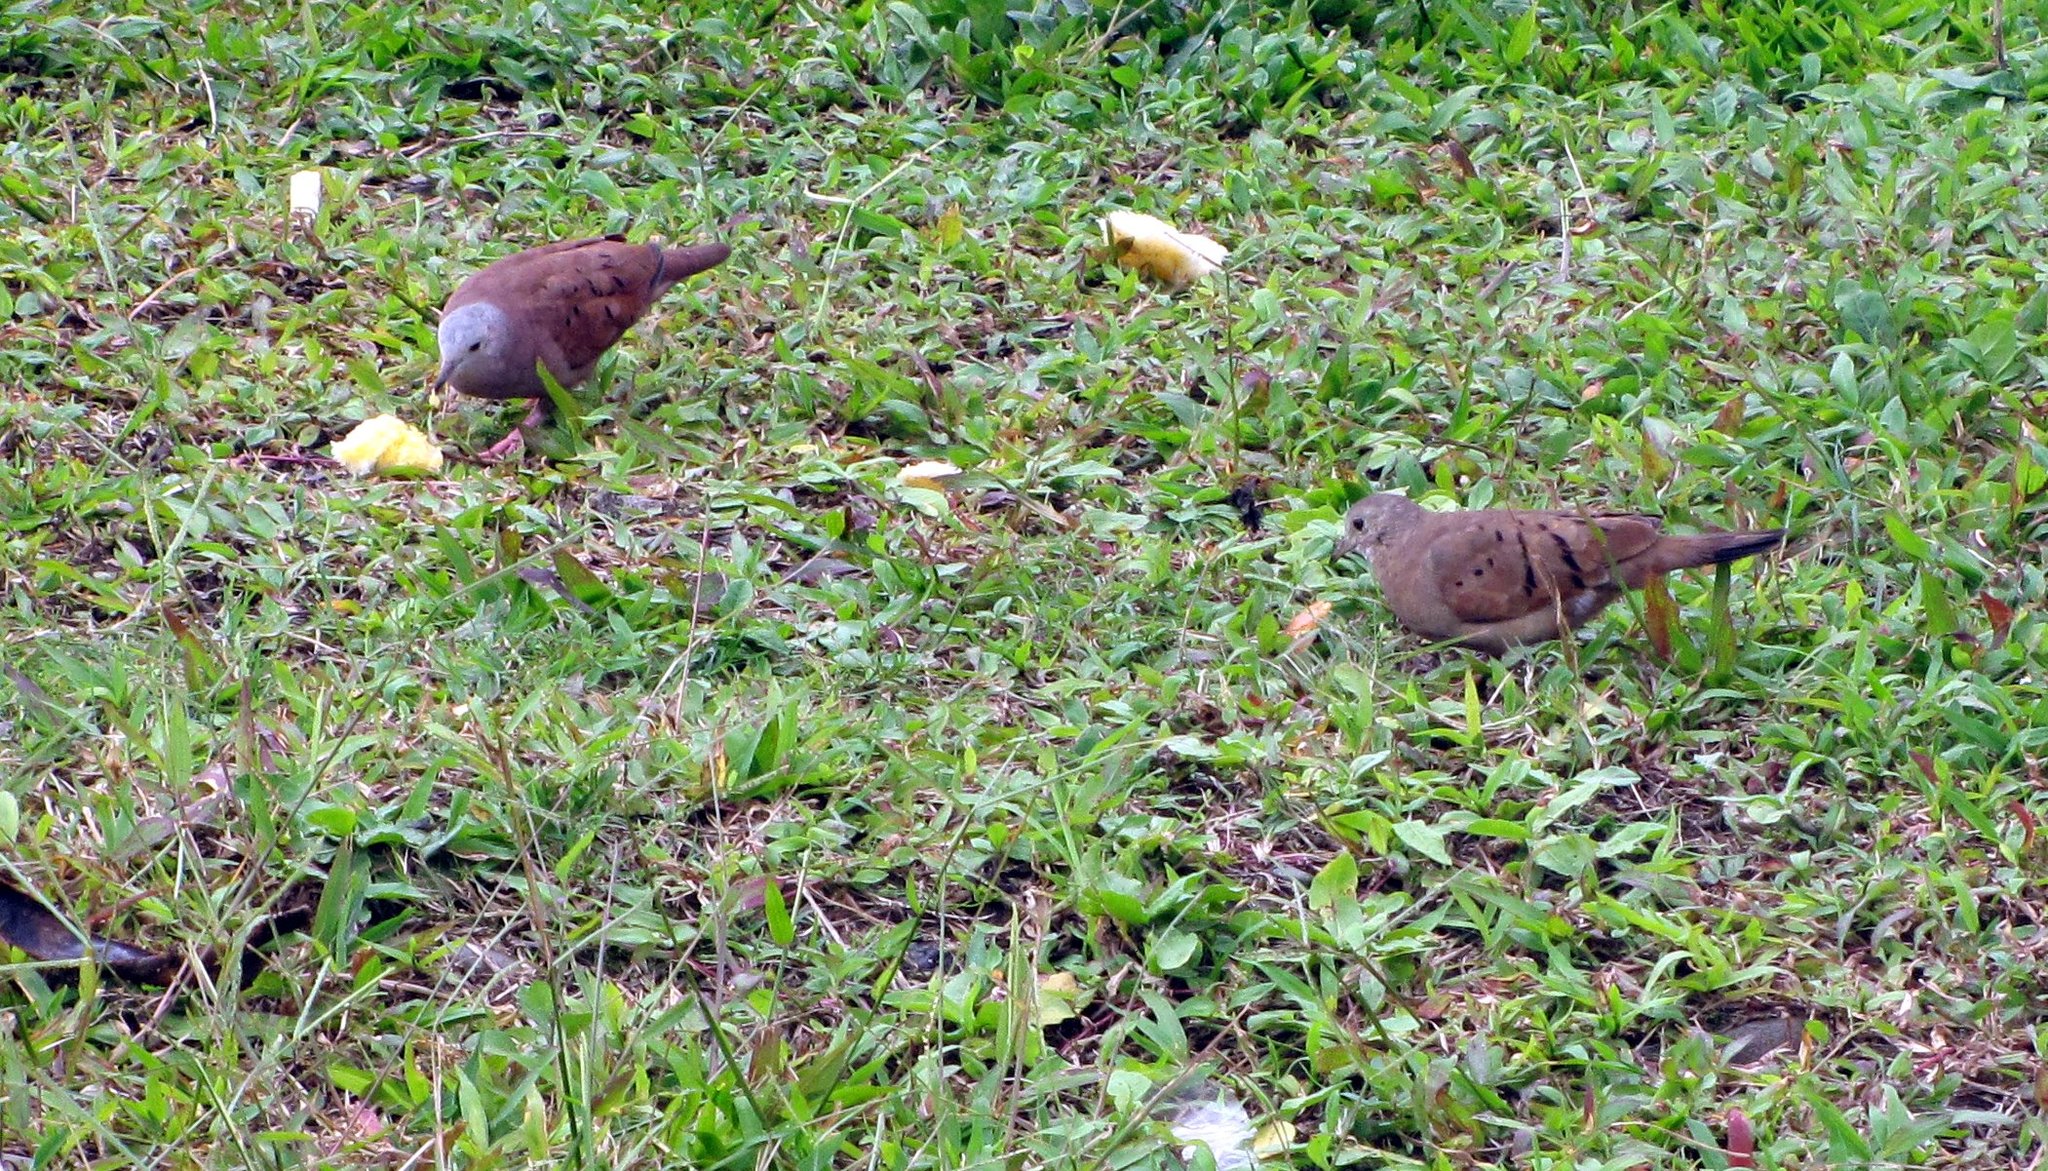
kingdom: Animalia
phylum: Chordata
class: Aves
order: Columbiformes
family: Columbidae
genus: Columbina
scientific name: Columbina talpacoti
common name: Ruddy ground dove
